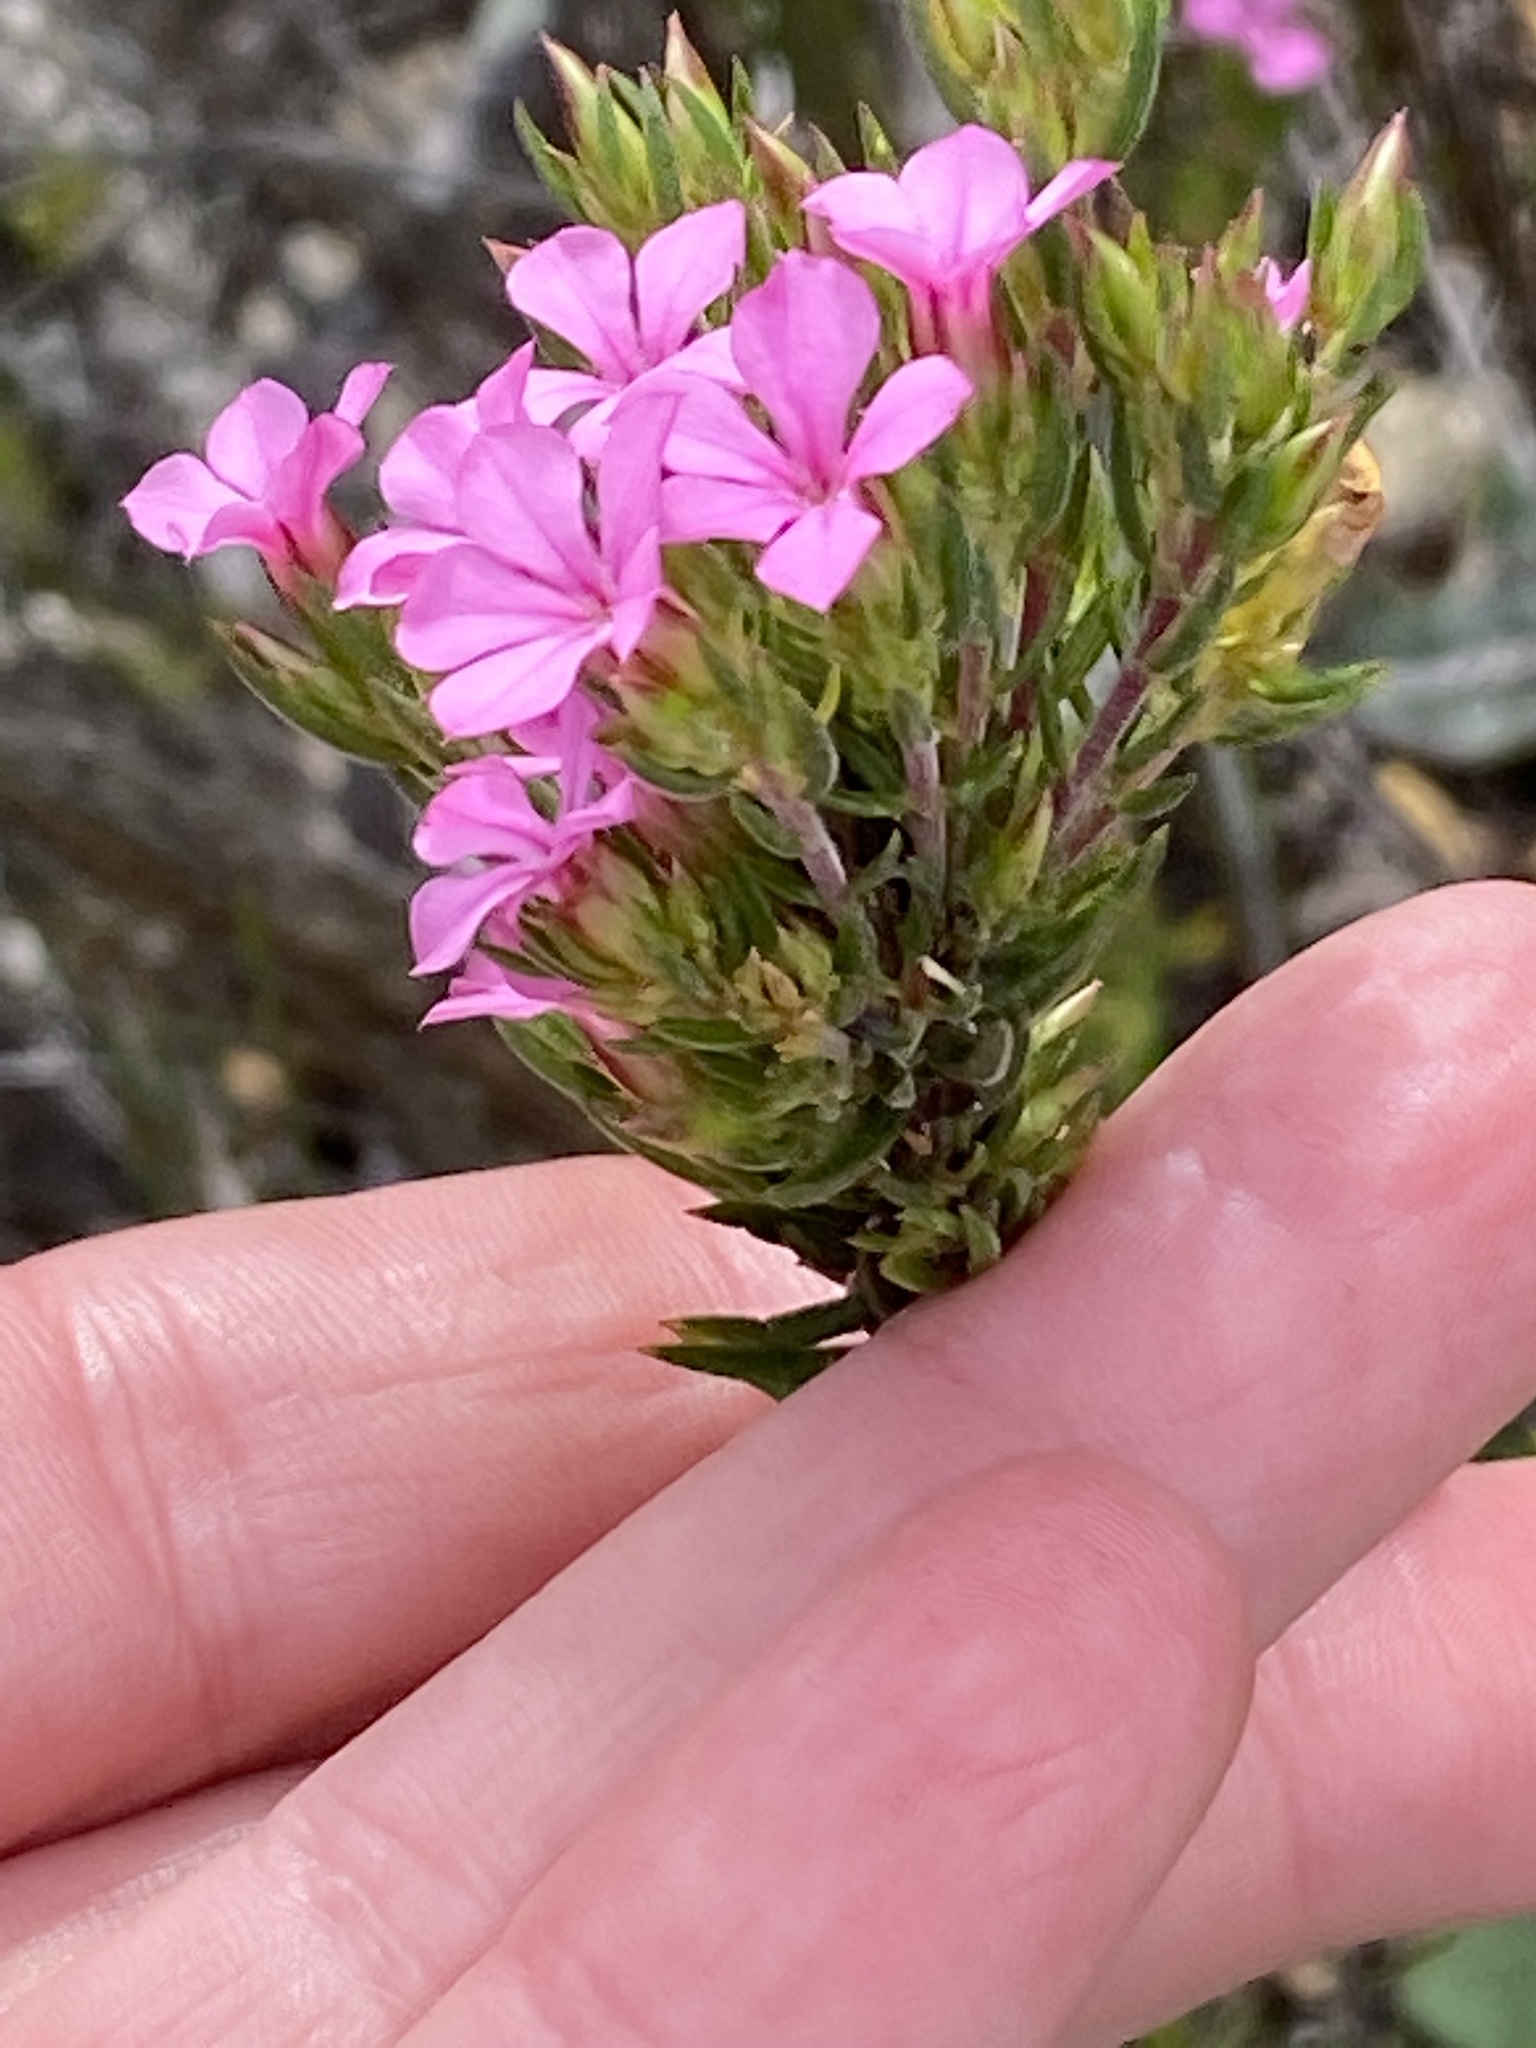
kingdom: Plantae
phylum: Tracheophyta
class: Magnoliopsida
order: Sapindales
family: Rutaceae
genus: Acmadenia
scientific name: Acmadenia obtusata
